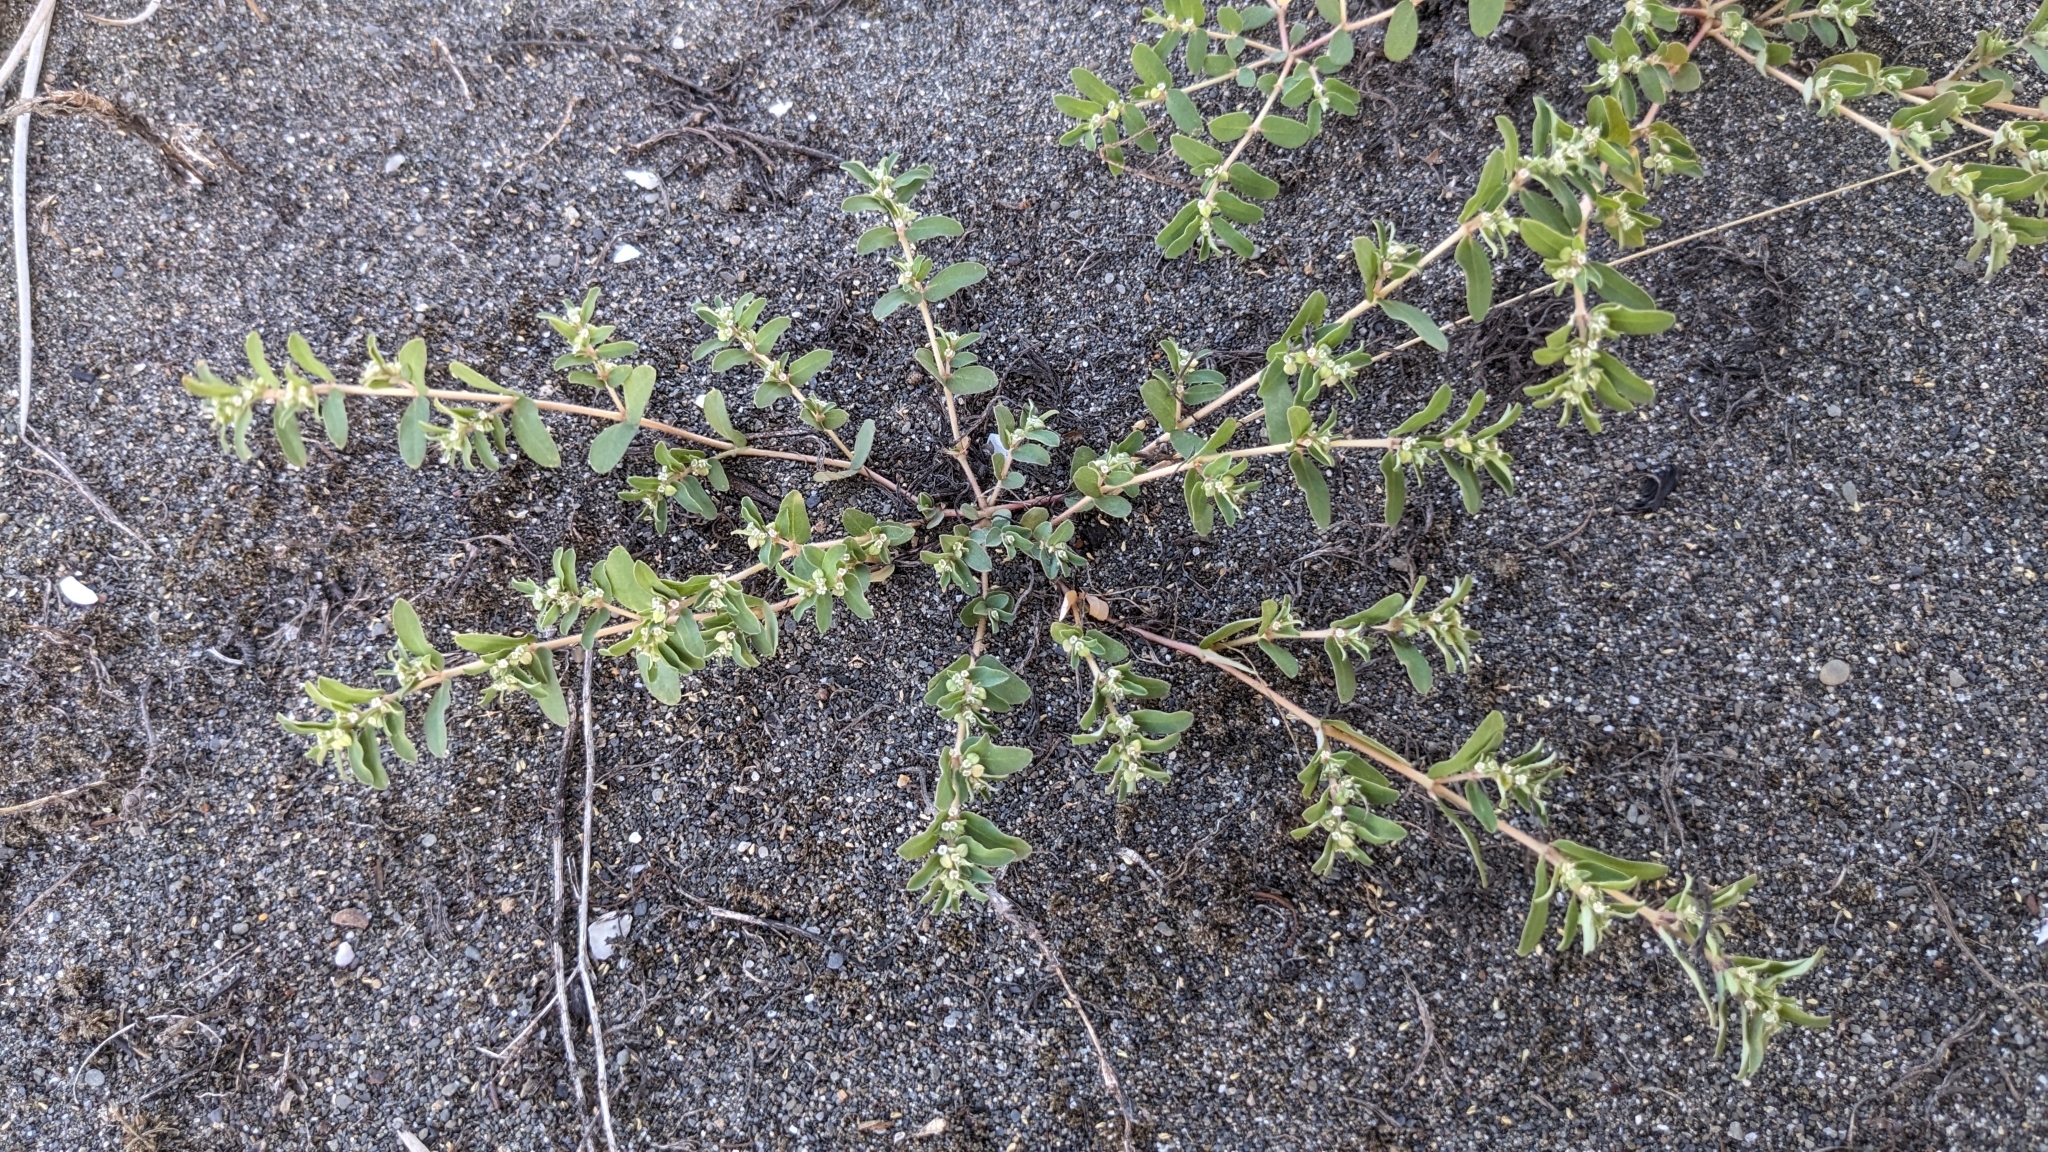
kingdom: Plantae
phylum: Tracheophyta
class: Magnoliopsida
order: Malpighiales
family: Euphorbiaceae
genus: Euphorbia
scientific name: Euphorbia maculata
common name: Spotted spurge
